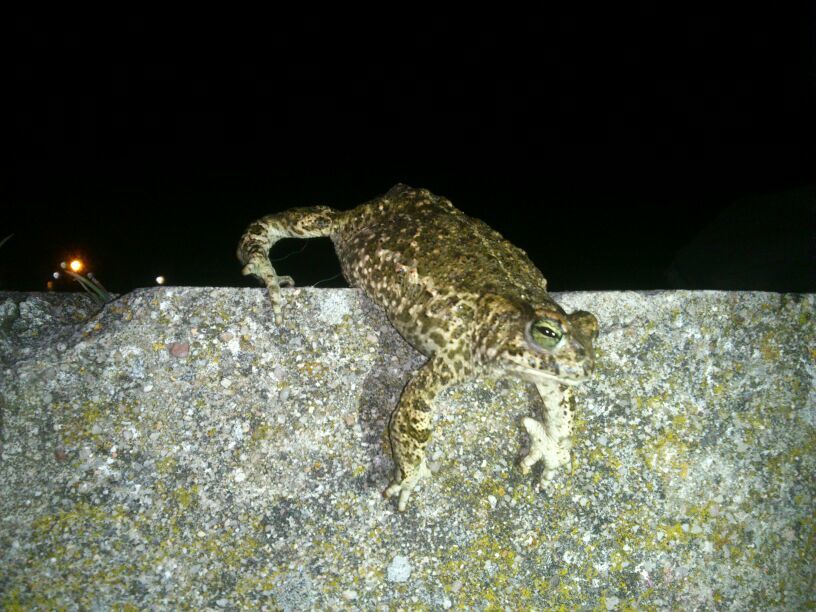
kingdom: Animalia
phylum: Chordata
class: Amphibia
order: Anura
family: Bufonidae
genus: Epidalea
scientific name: Epidalea calamita
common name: Natterjack toad
